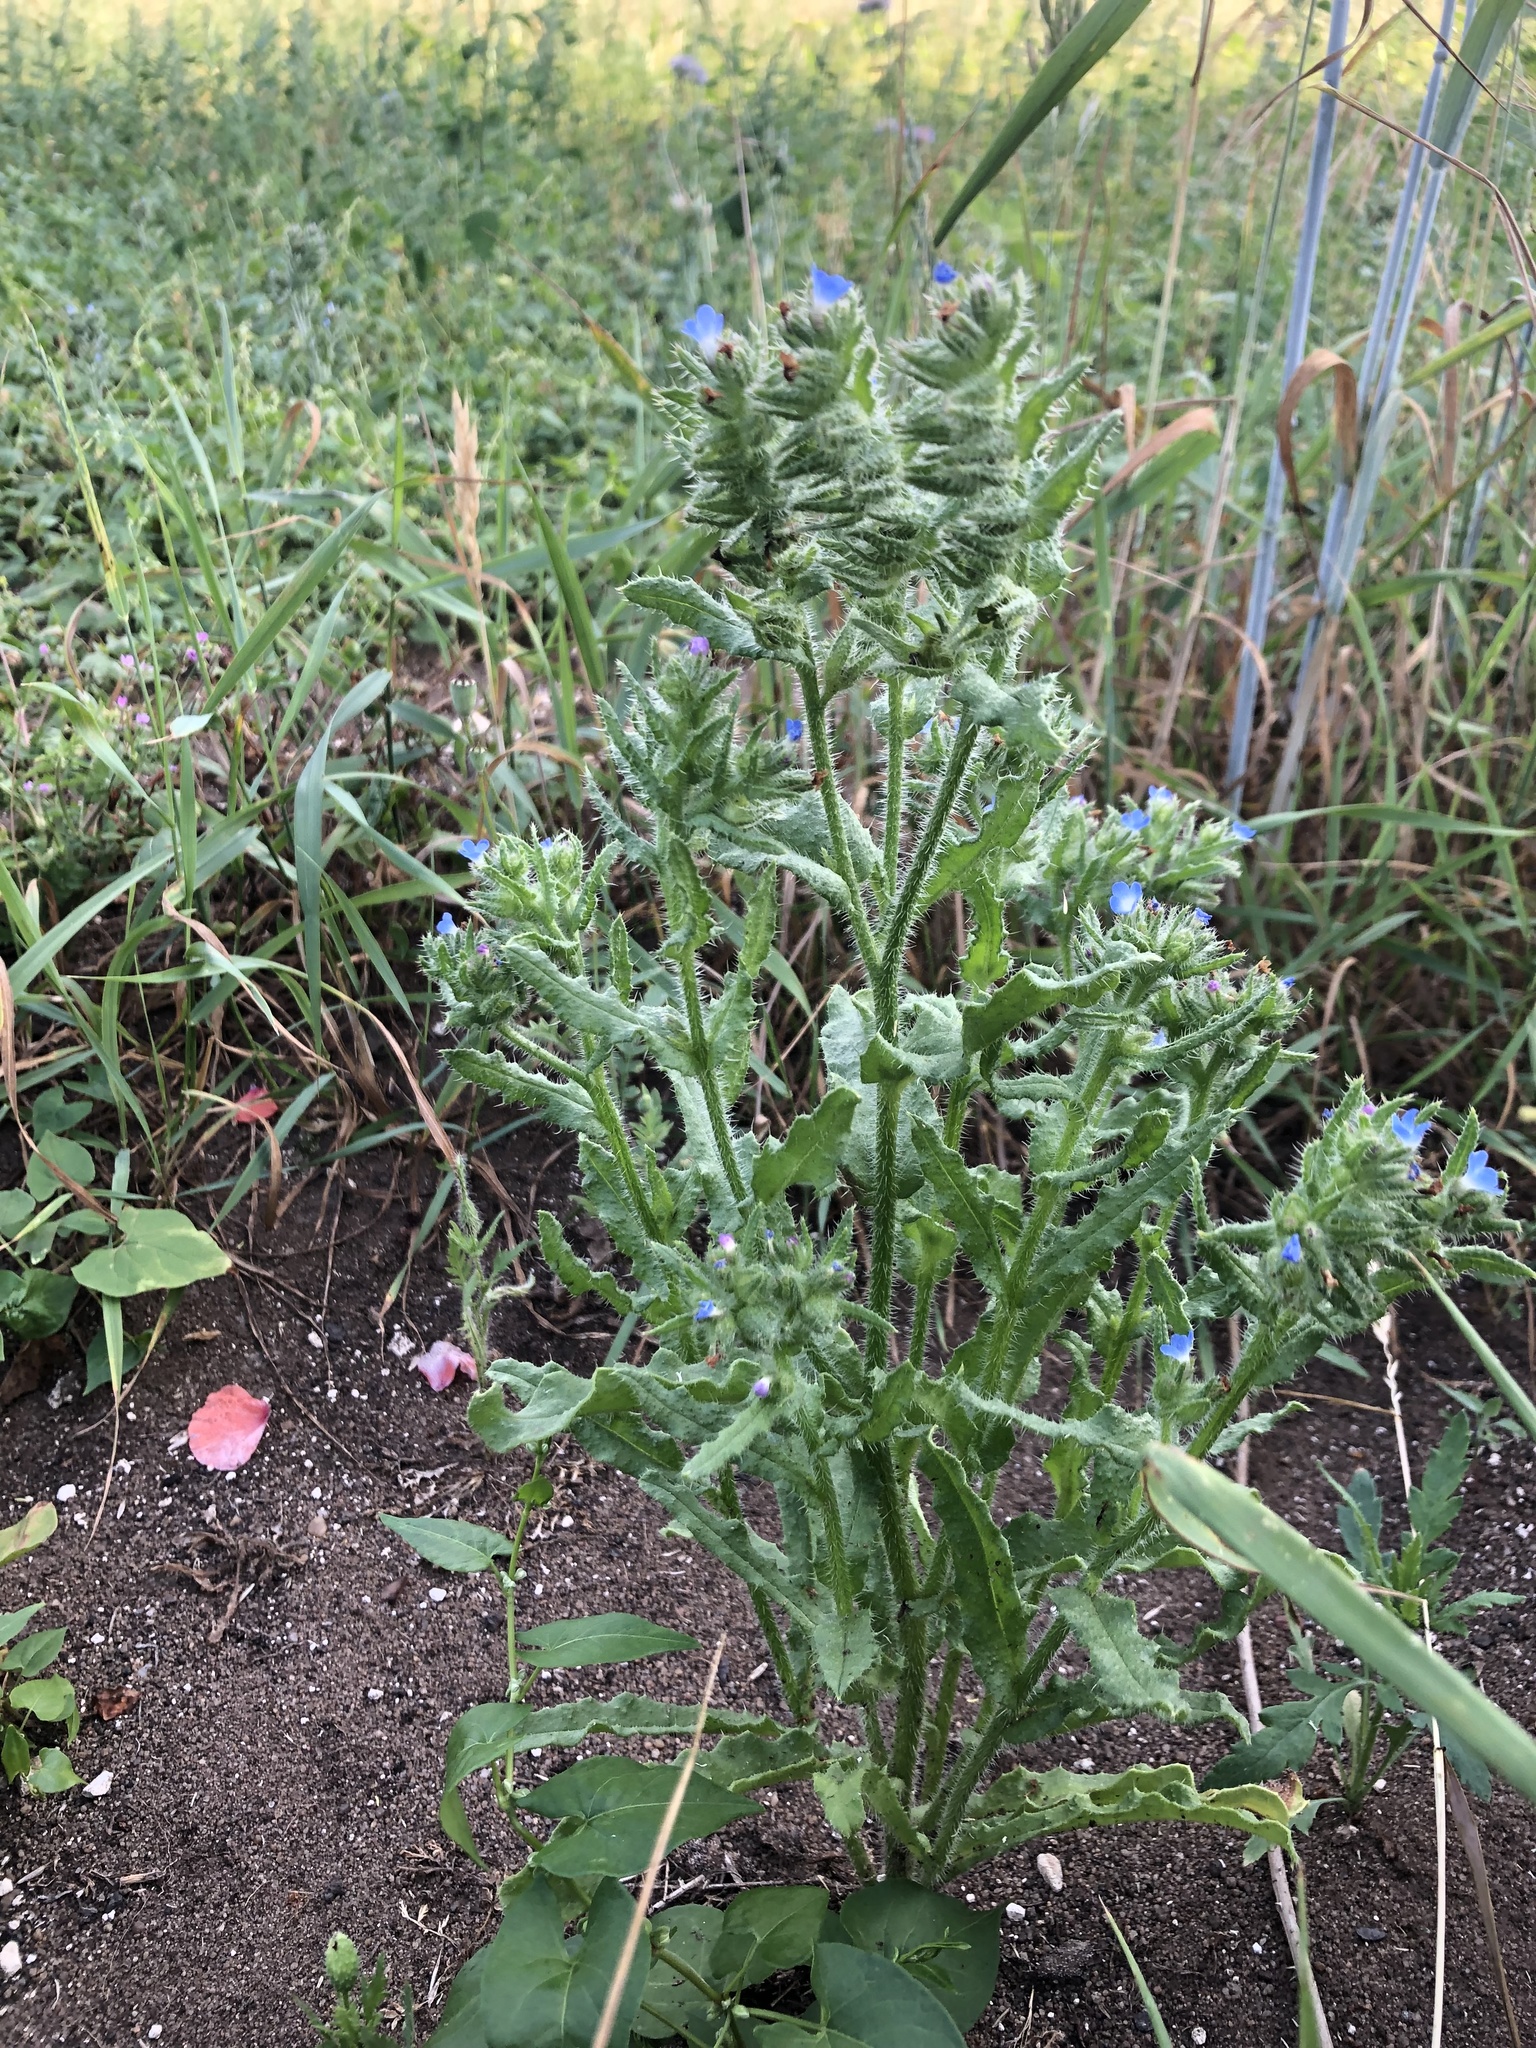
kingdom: Plantae
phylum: Tracheophyta
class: Magnoliopsida
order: Boraginales
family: Boraginaceae
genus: Lycopsis
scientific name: Lycopsis arvensis
